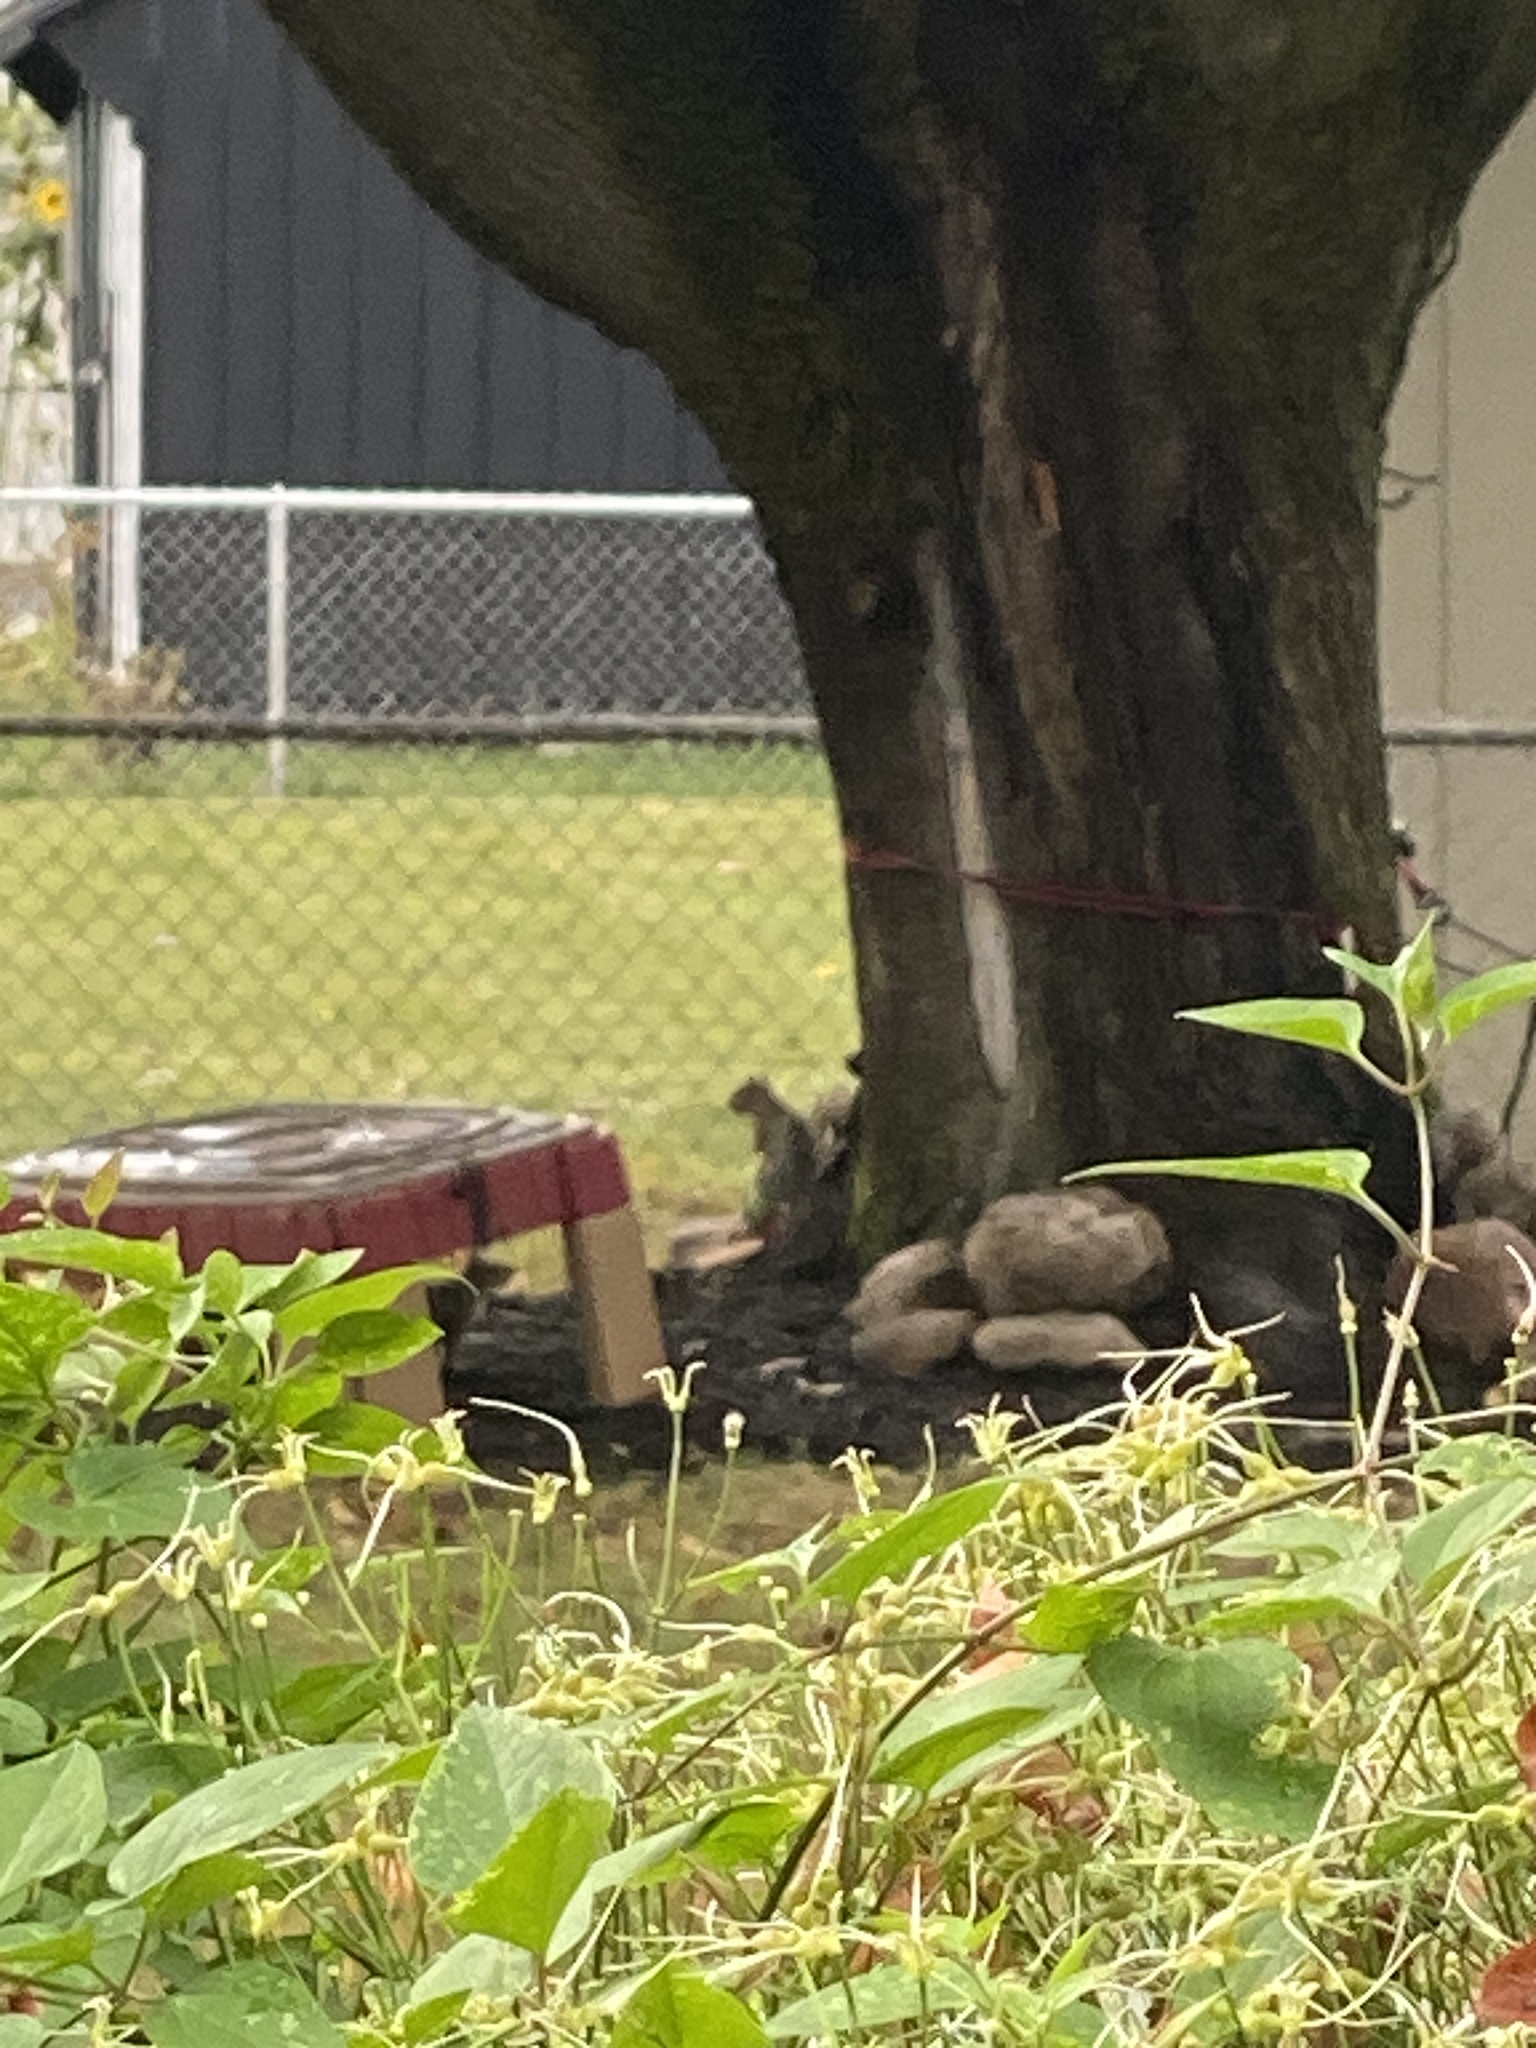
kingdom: Animalia
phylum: Chordata
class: Mammalia
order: Rodentia
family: Sciuridae
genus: Sciurus
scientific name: Sciurus carolinensis
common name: Eastern gray squirrel
